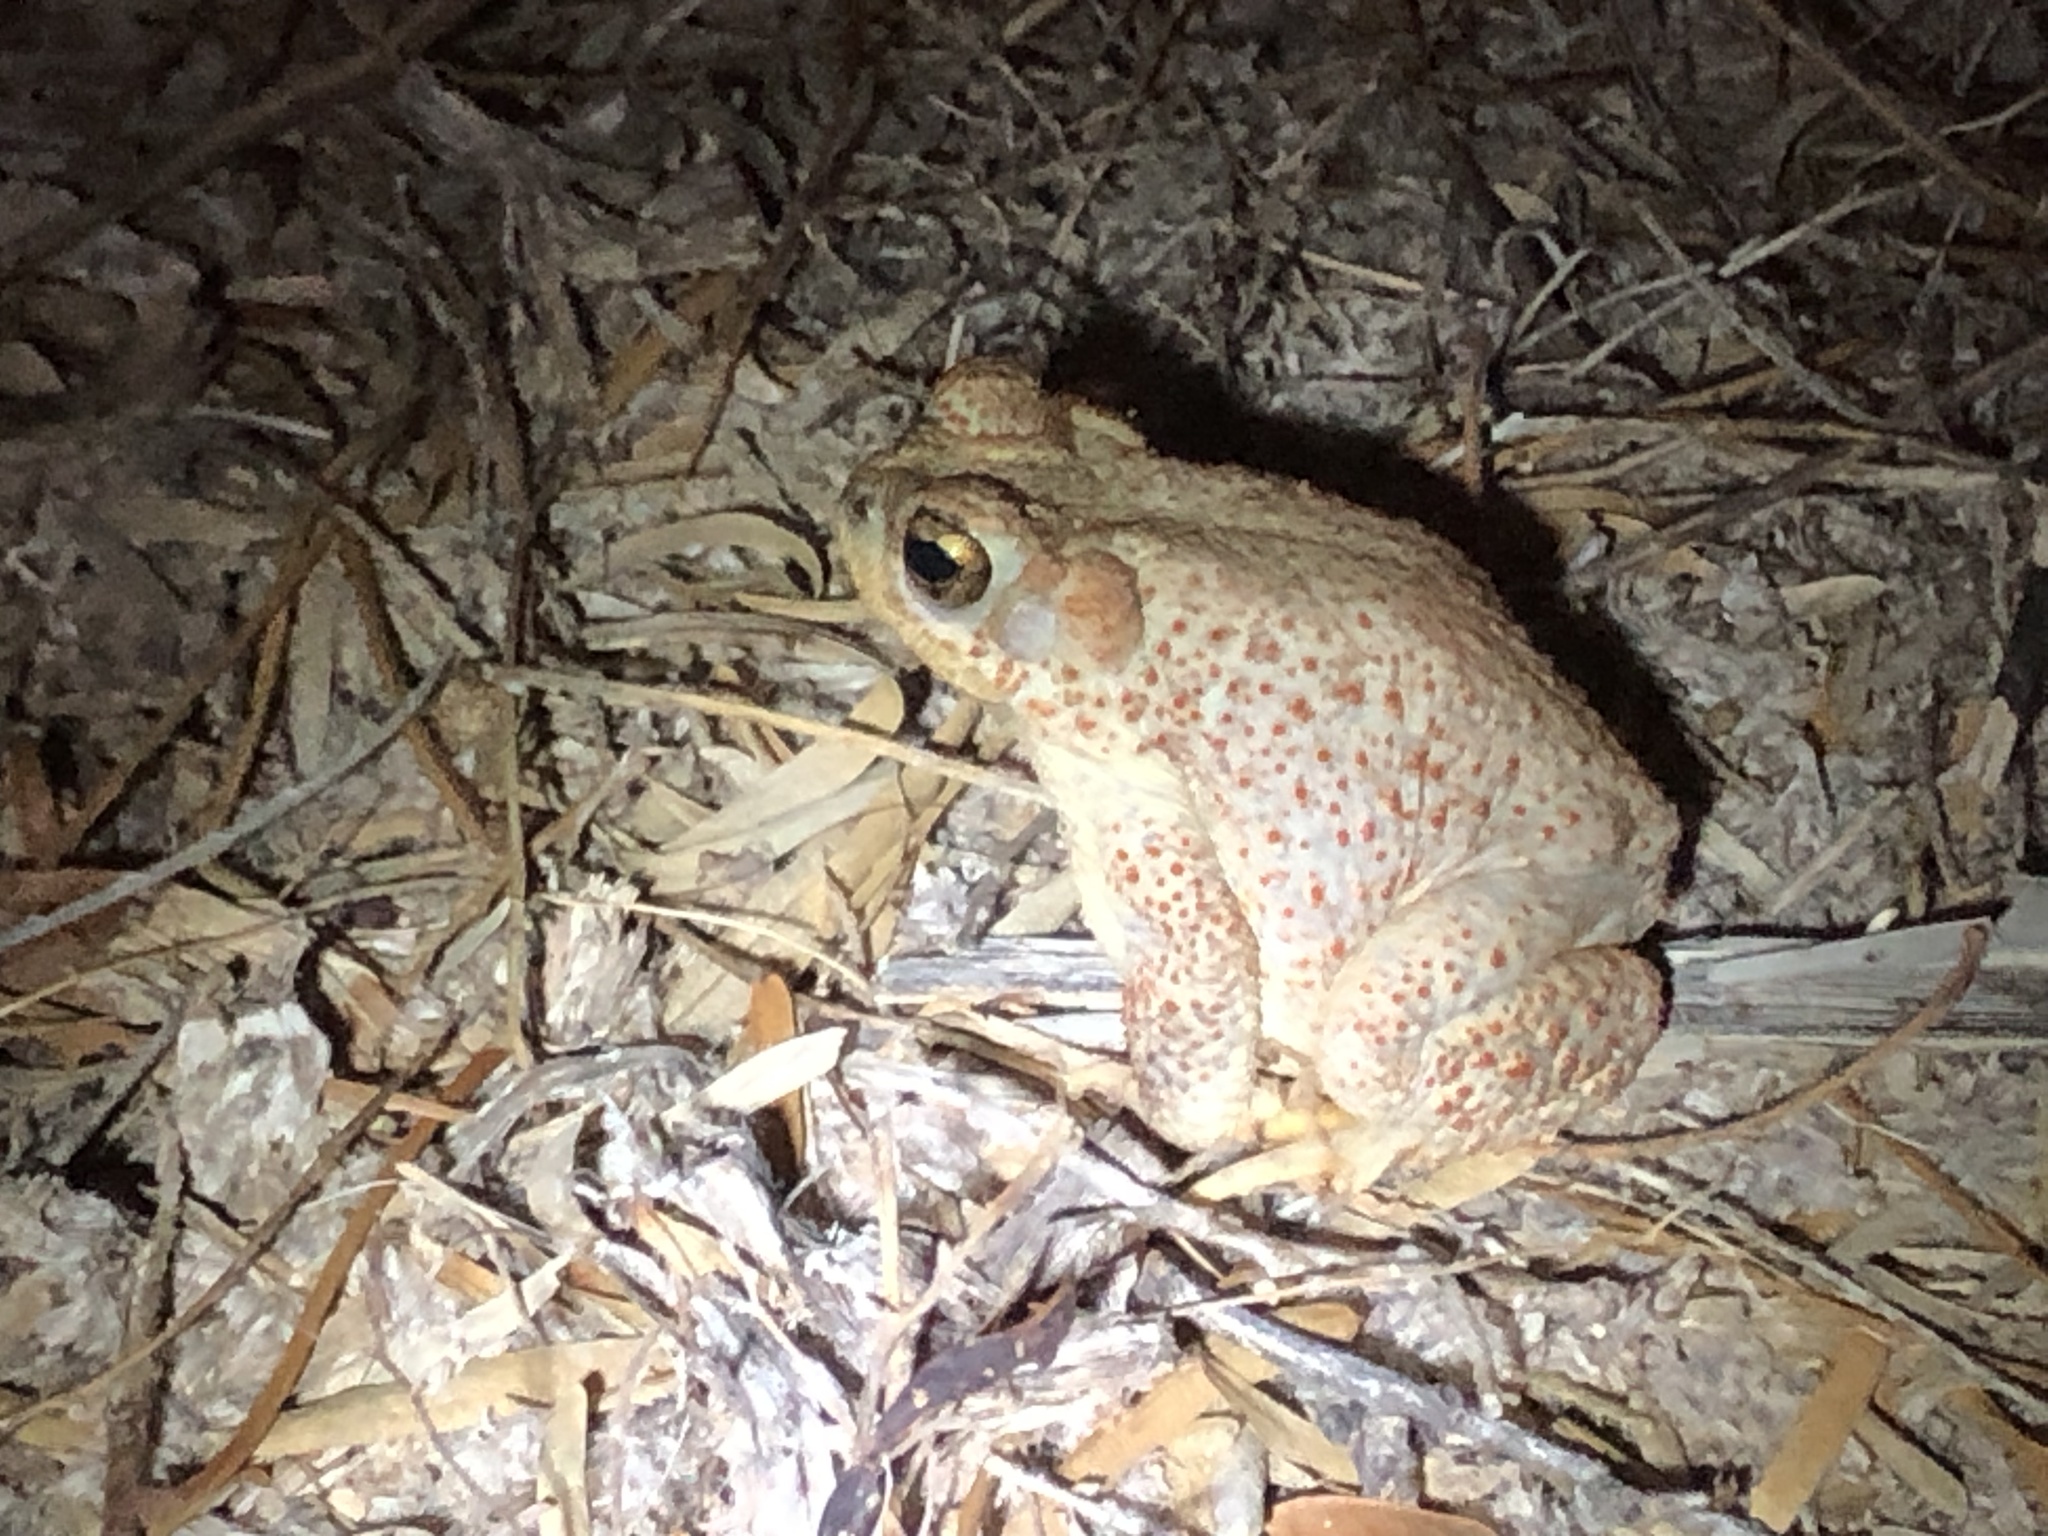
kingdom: Animalia
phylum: Chordata
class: Amphibia
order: Anura
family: Bufonidae
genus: Anaxyrus
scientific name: Anaxyrus punctatus
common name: Red-spotted toad
